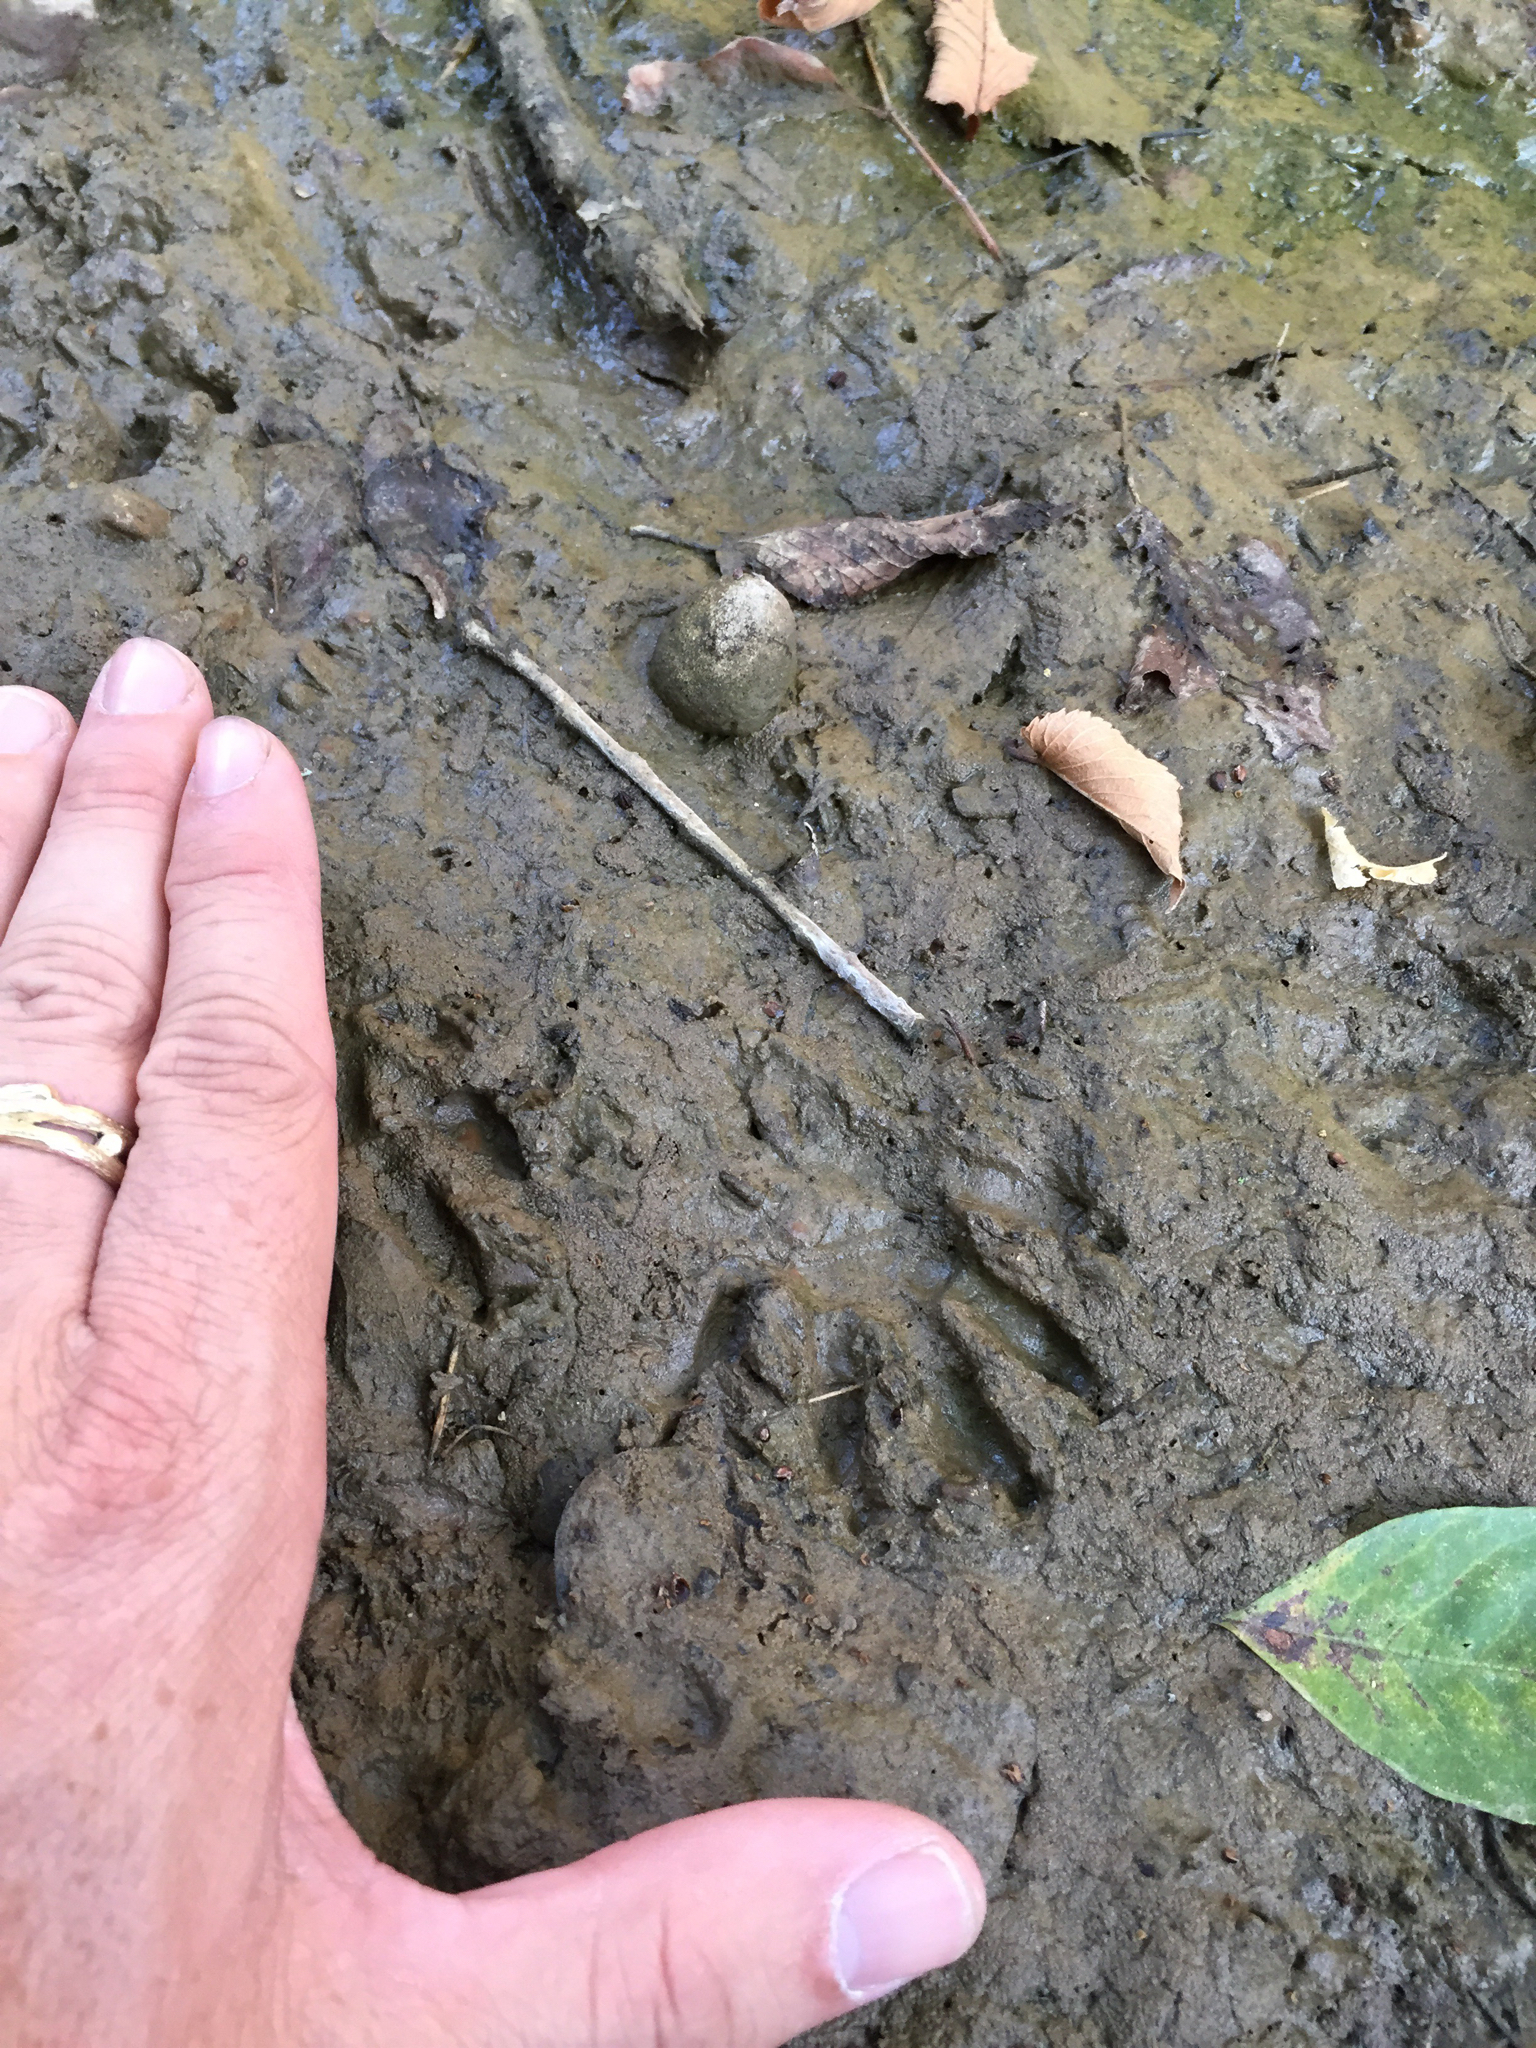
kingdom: Animalia
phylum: Chordata
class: Mammalia
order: Carnivora
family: Procyonidae
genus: Procyon
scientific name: Procyon lotor
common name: Raccoon
